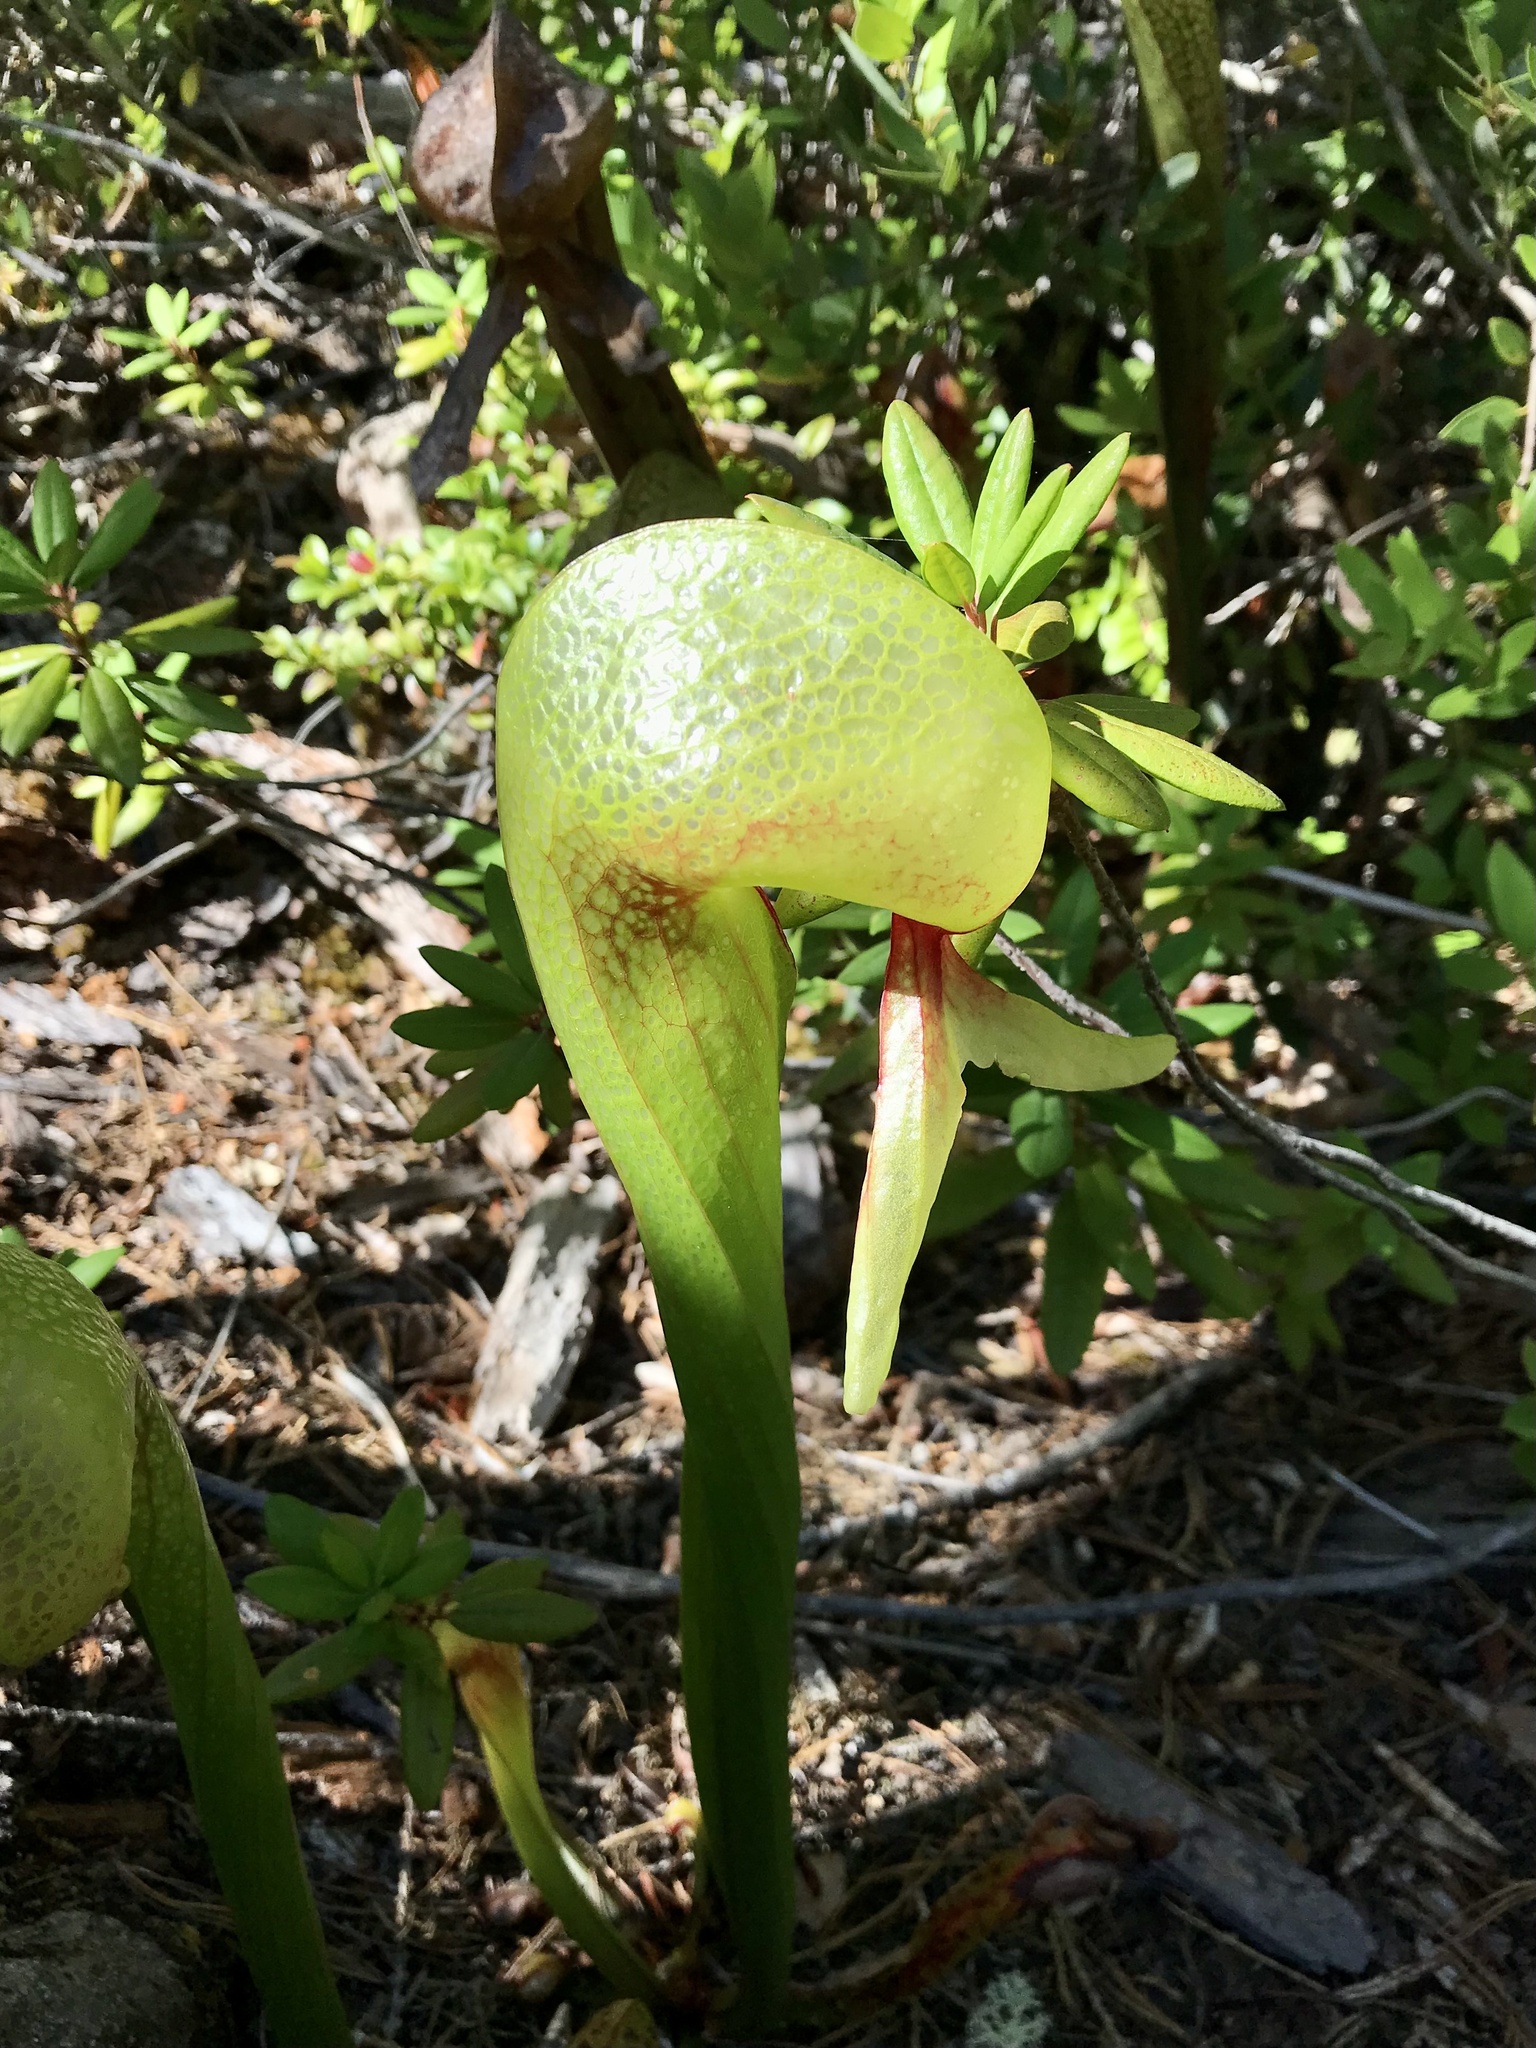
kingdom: Plantae
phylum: Tracheophyta
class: Magnoliopsida
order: Ericales
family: Sarraceniaceae
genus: Darlingtonia
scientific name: Darlingtonia californica
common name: California pitcher plant
